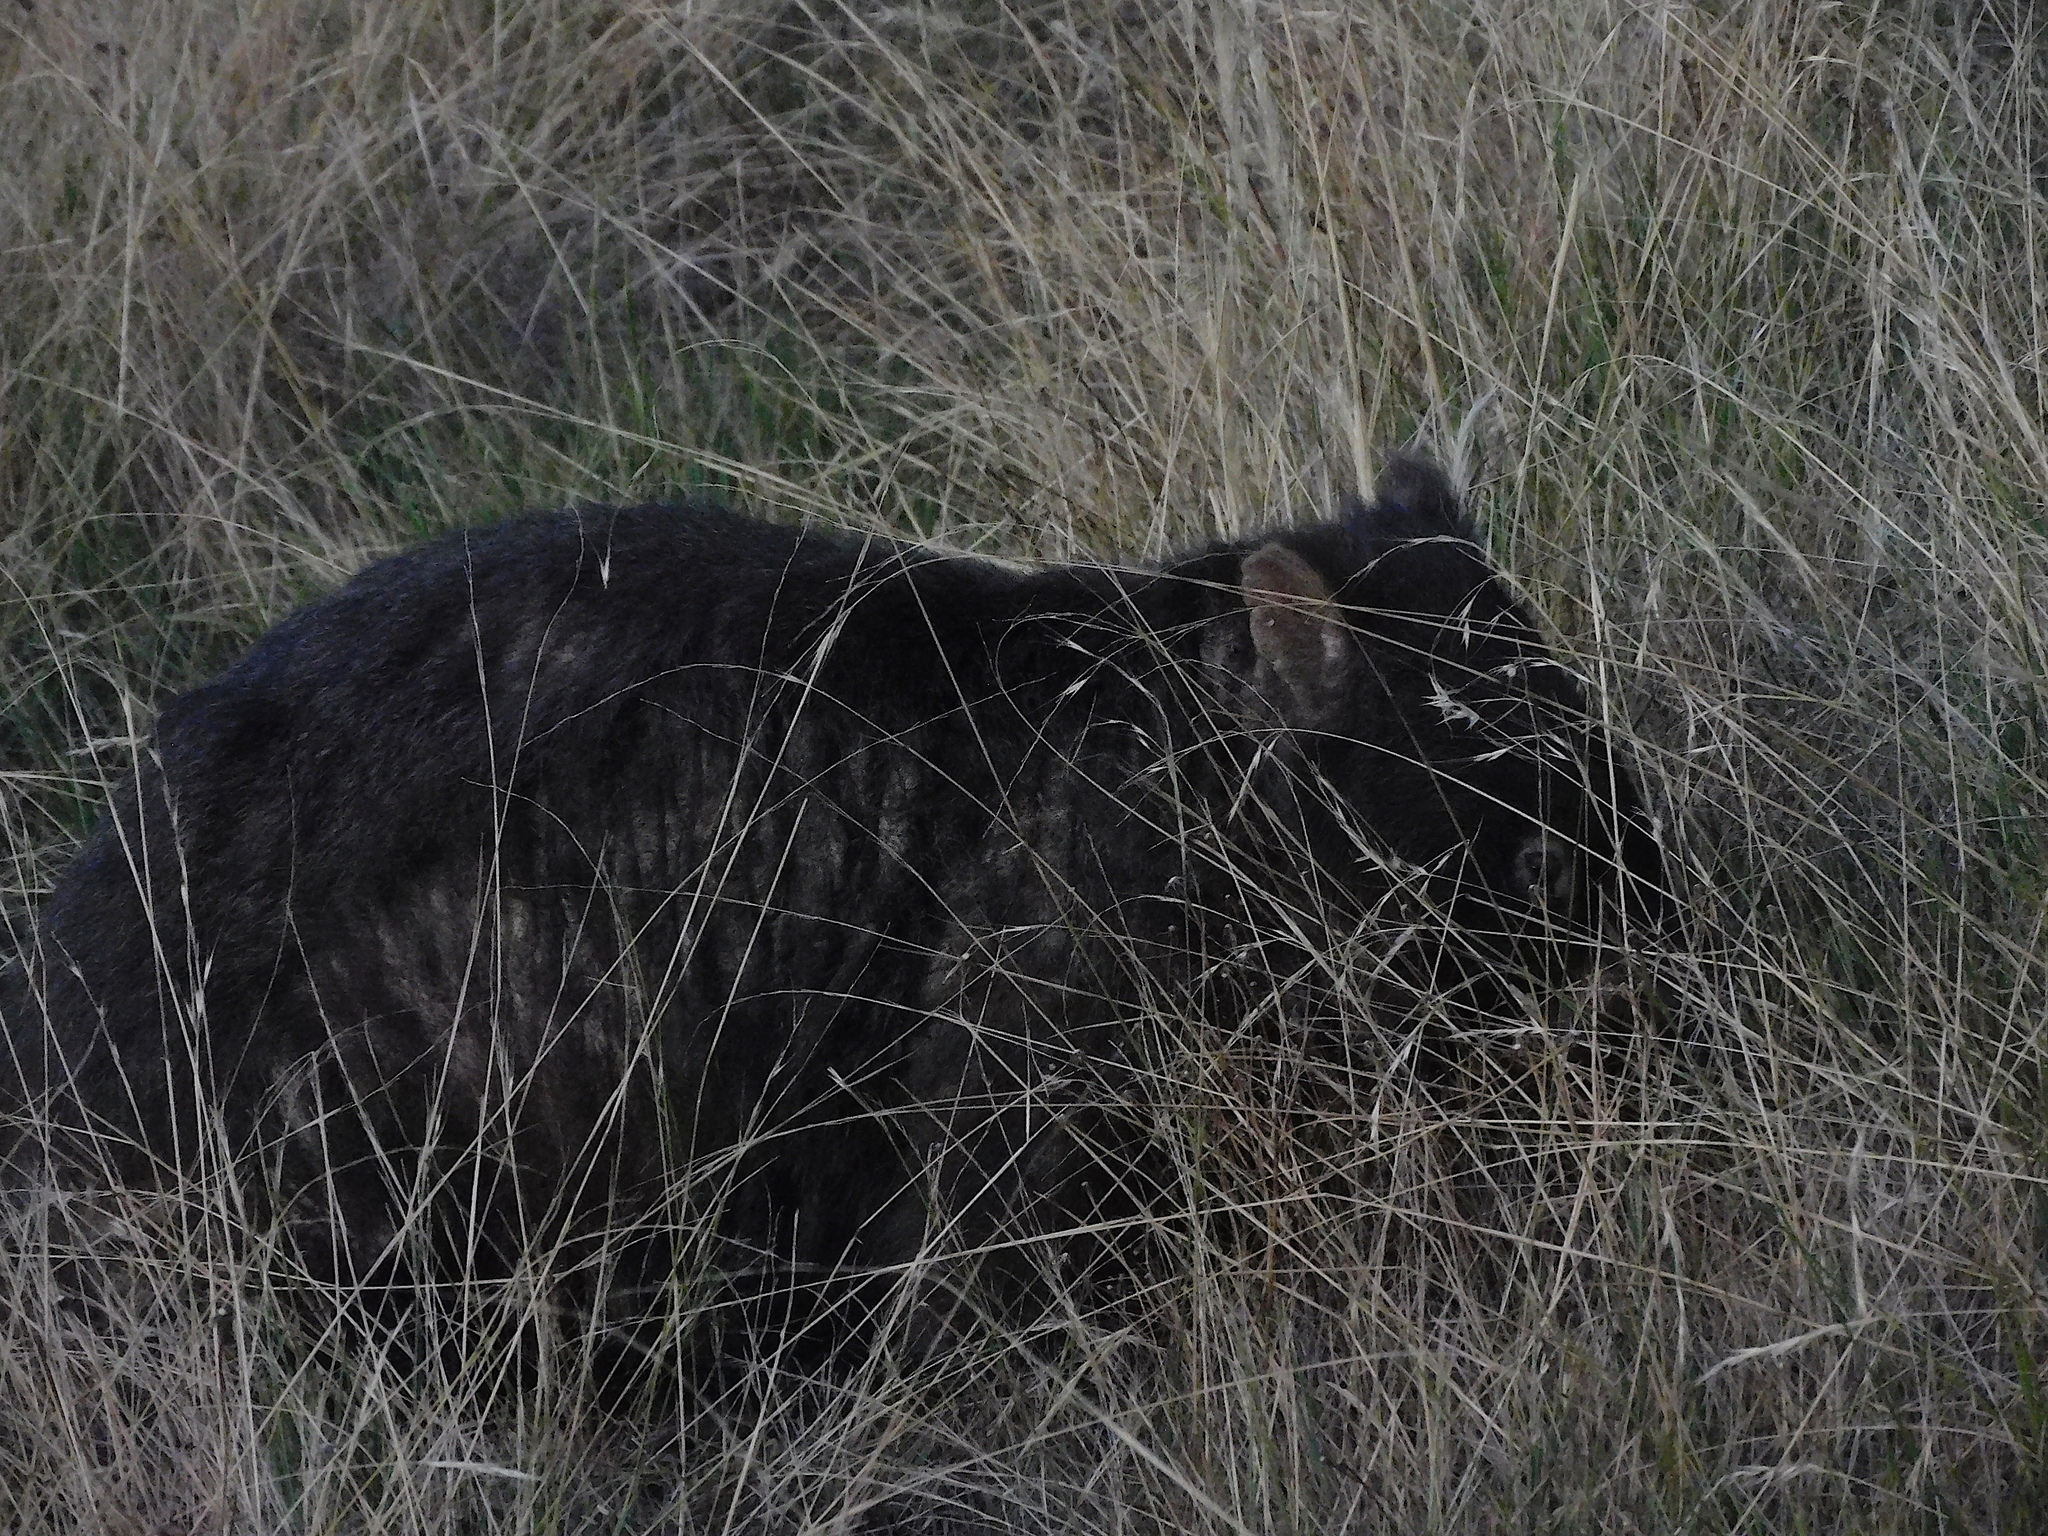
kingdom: Animalia
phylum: Chordata
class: Mammalia
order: Diprotodontia
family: Vombatidae
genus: Vombatus
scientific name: Vombatus ursinus
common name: Common wombat
